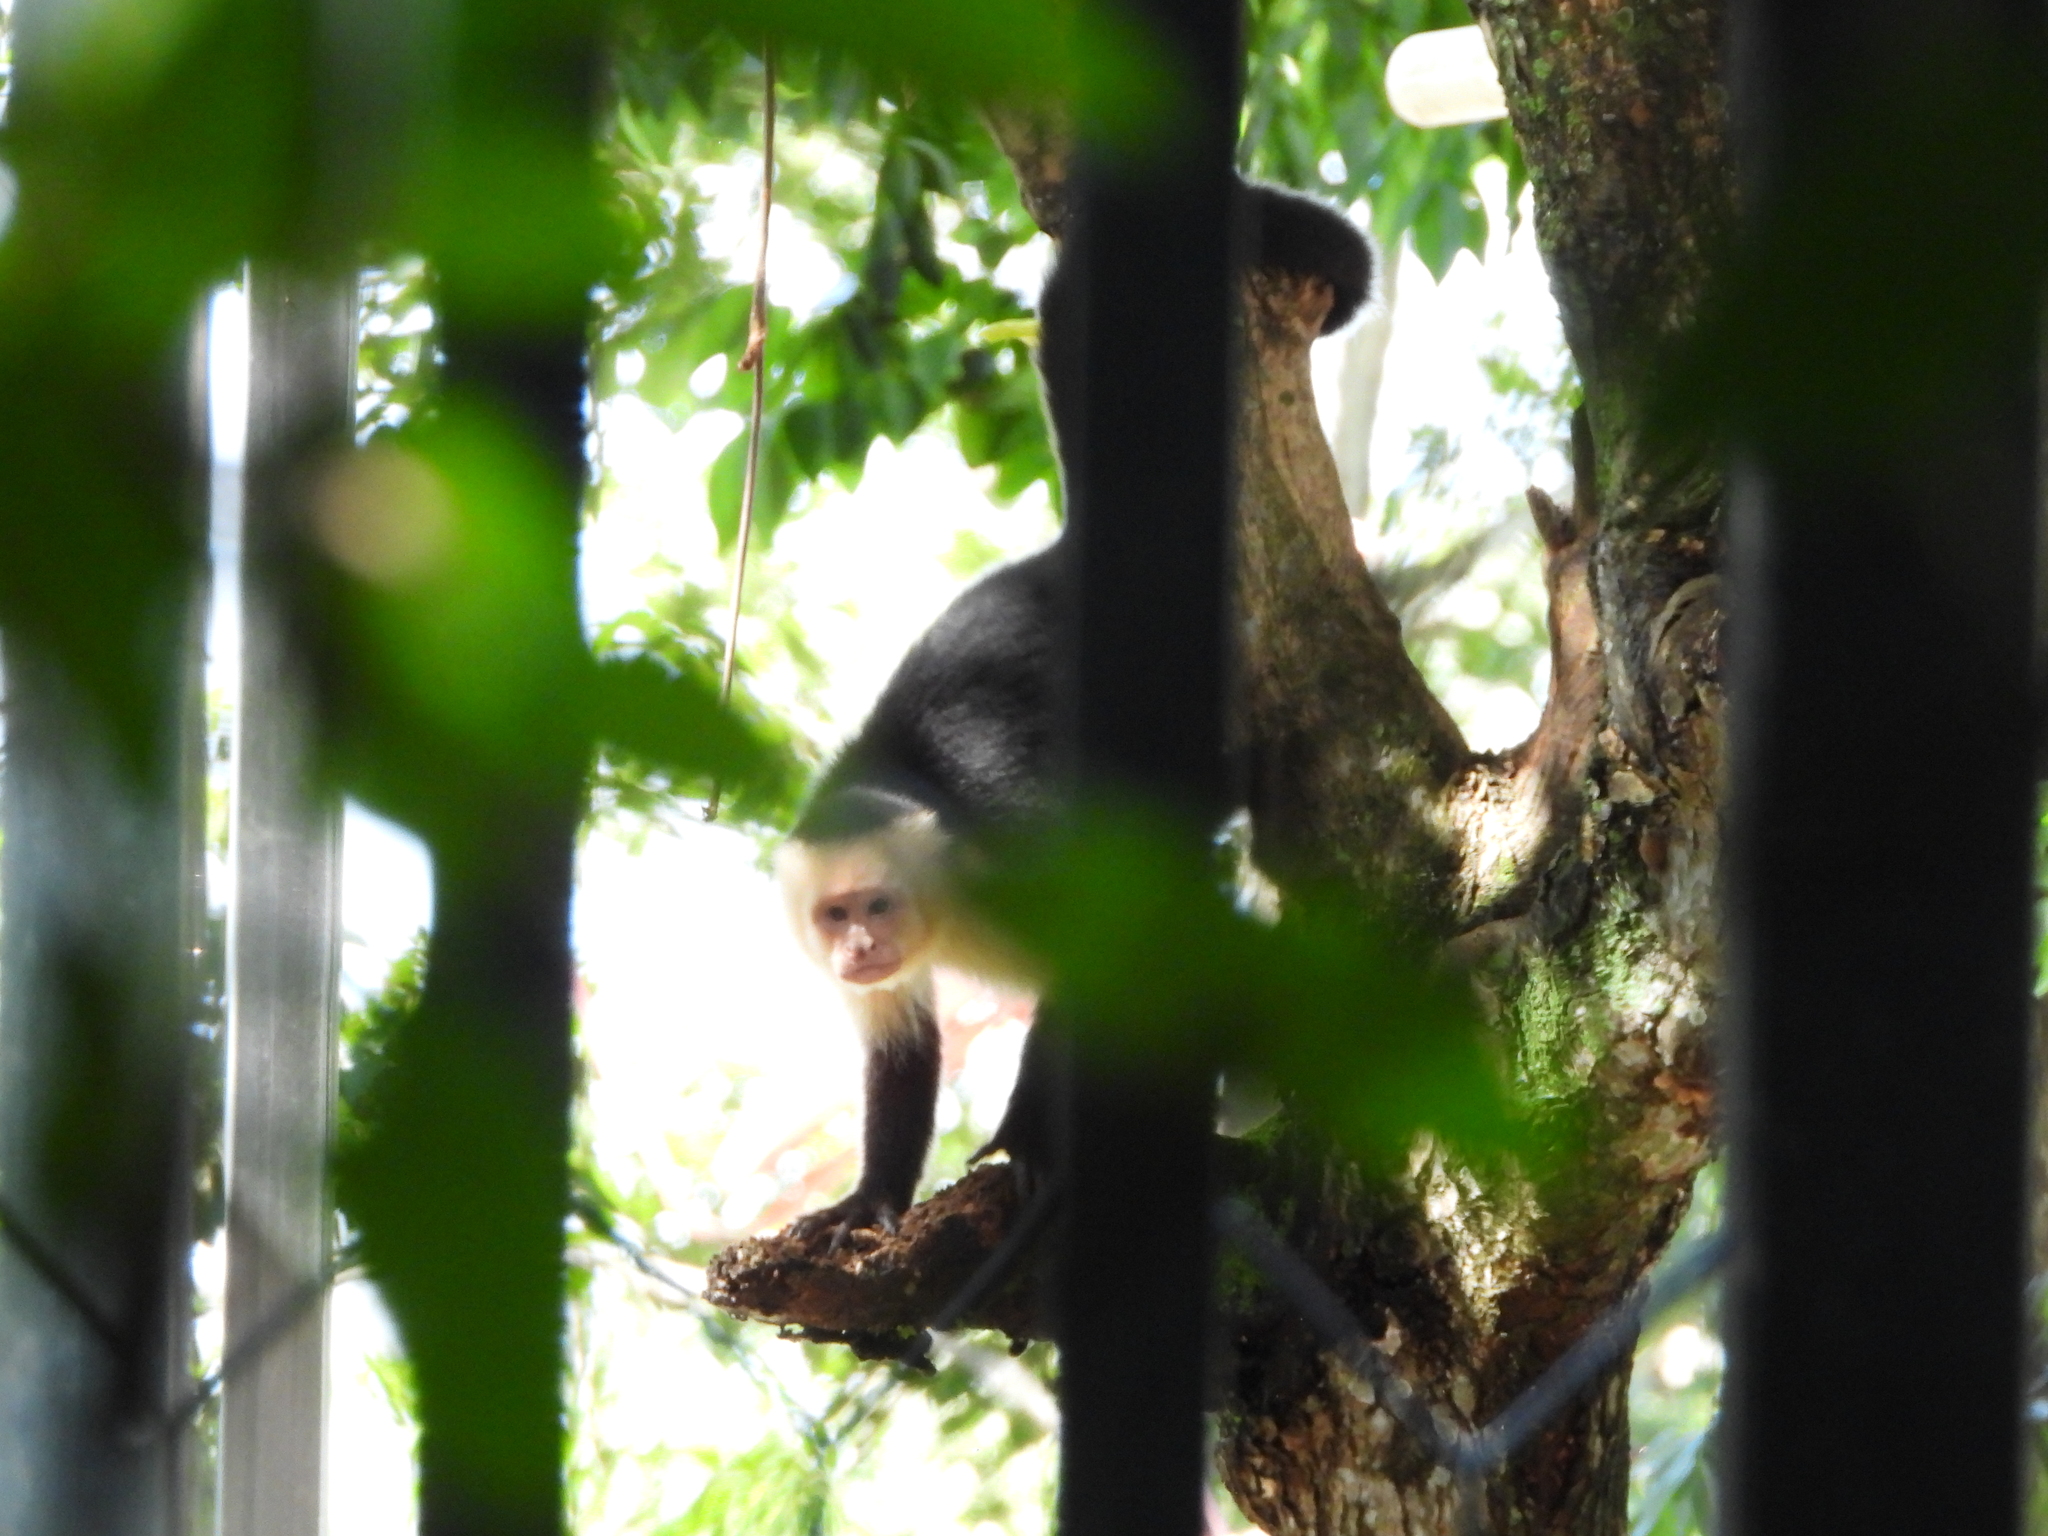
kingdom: Animalia
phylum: Chordata
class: Mammalia
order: Primates
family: Cebidae
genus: Cebus
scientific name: Cebus imitator
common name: Panamanian white-faced capuchin
